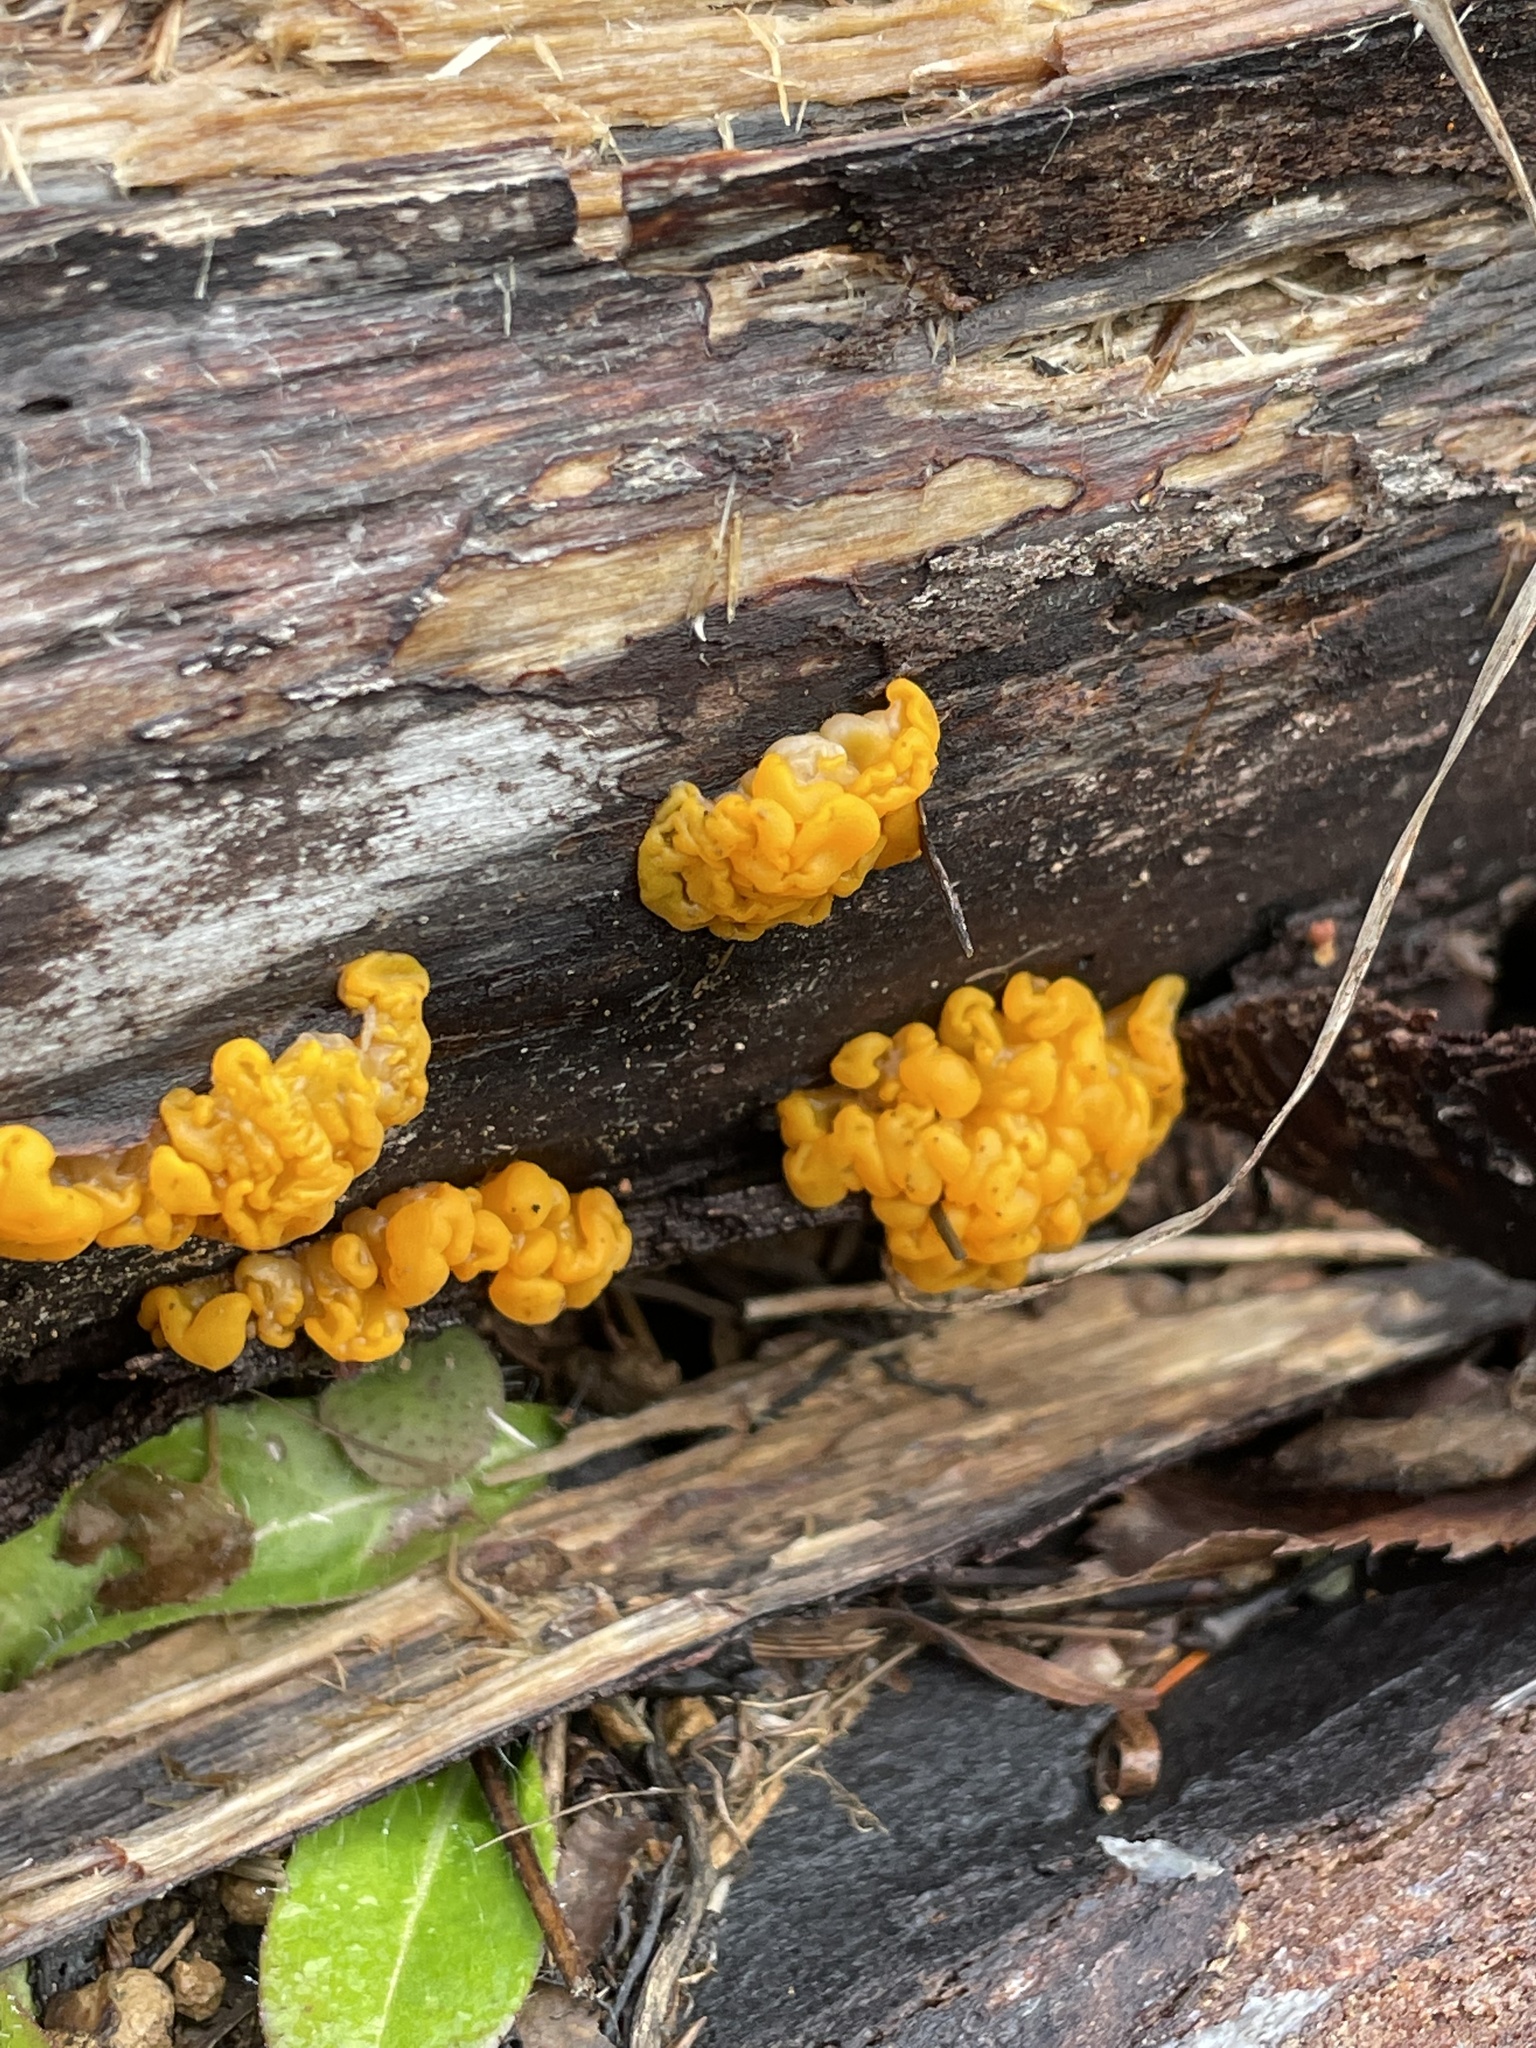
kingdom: Fungi
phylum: Basidiomycota
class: Dacrymycetes
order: Dacrymycetales
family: Dacrymycetaceae
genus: Dacrymyces
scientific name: Dacrymyces chrysospermus
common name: Orange jelly spot
